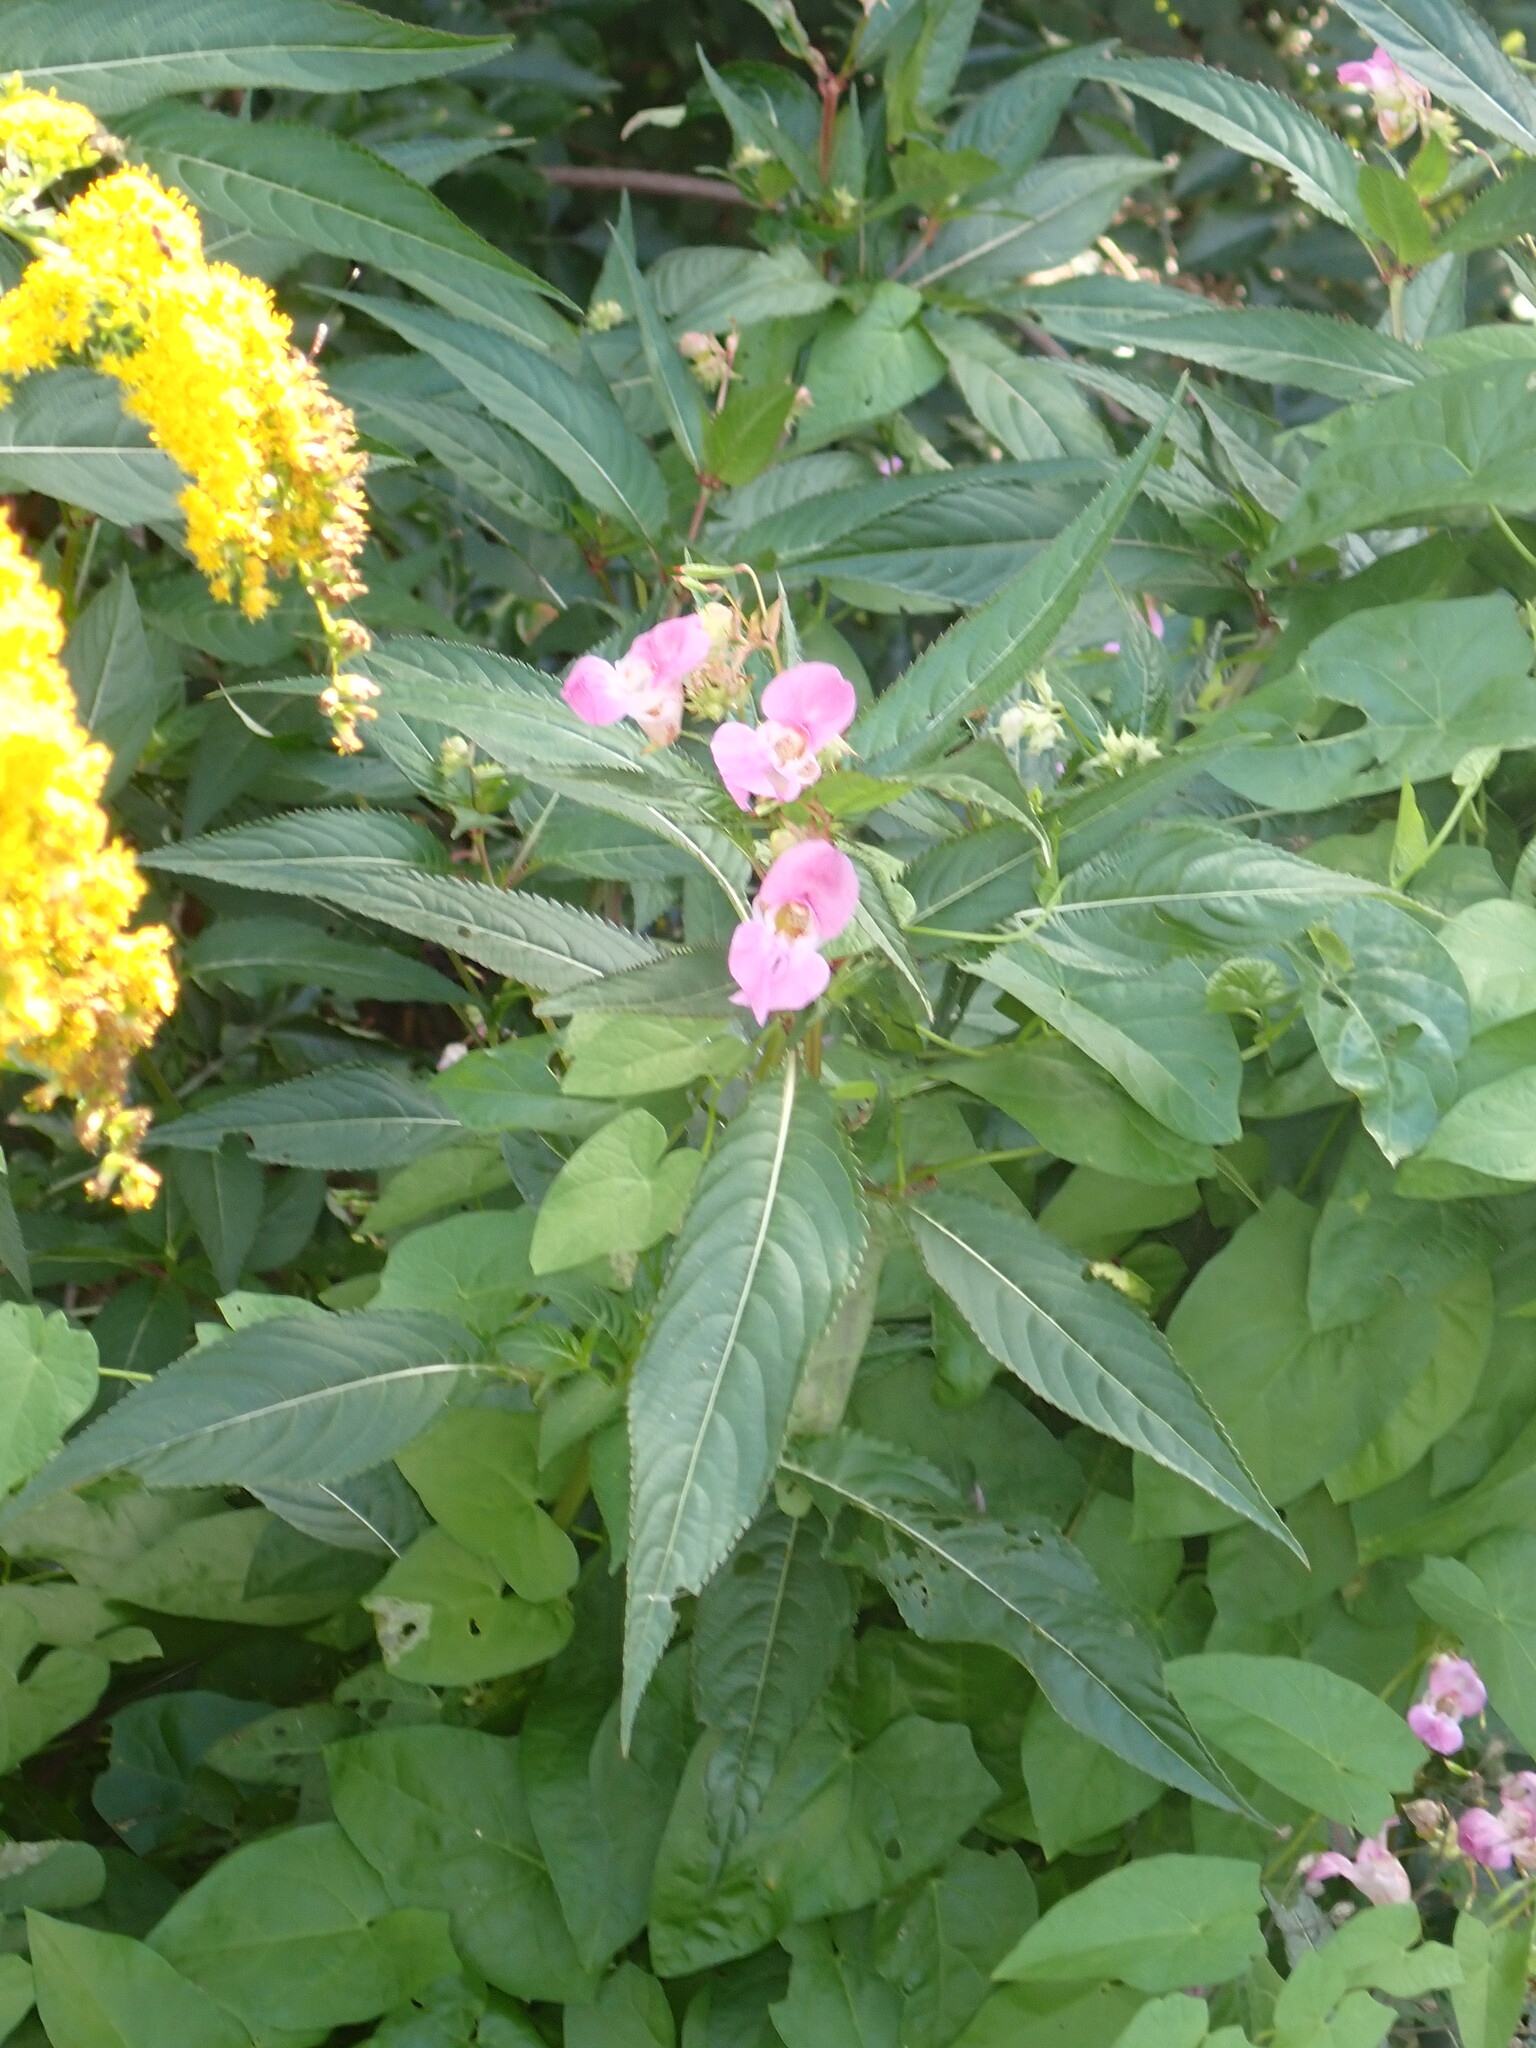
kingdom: Plantae
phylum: Tracheophyta
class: Magnoliopsida
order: Ericales
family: Balsaminaceae
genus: Impatiens
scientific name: Impatiens glandulifera
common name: Himalayan balsam
